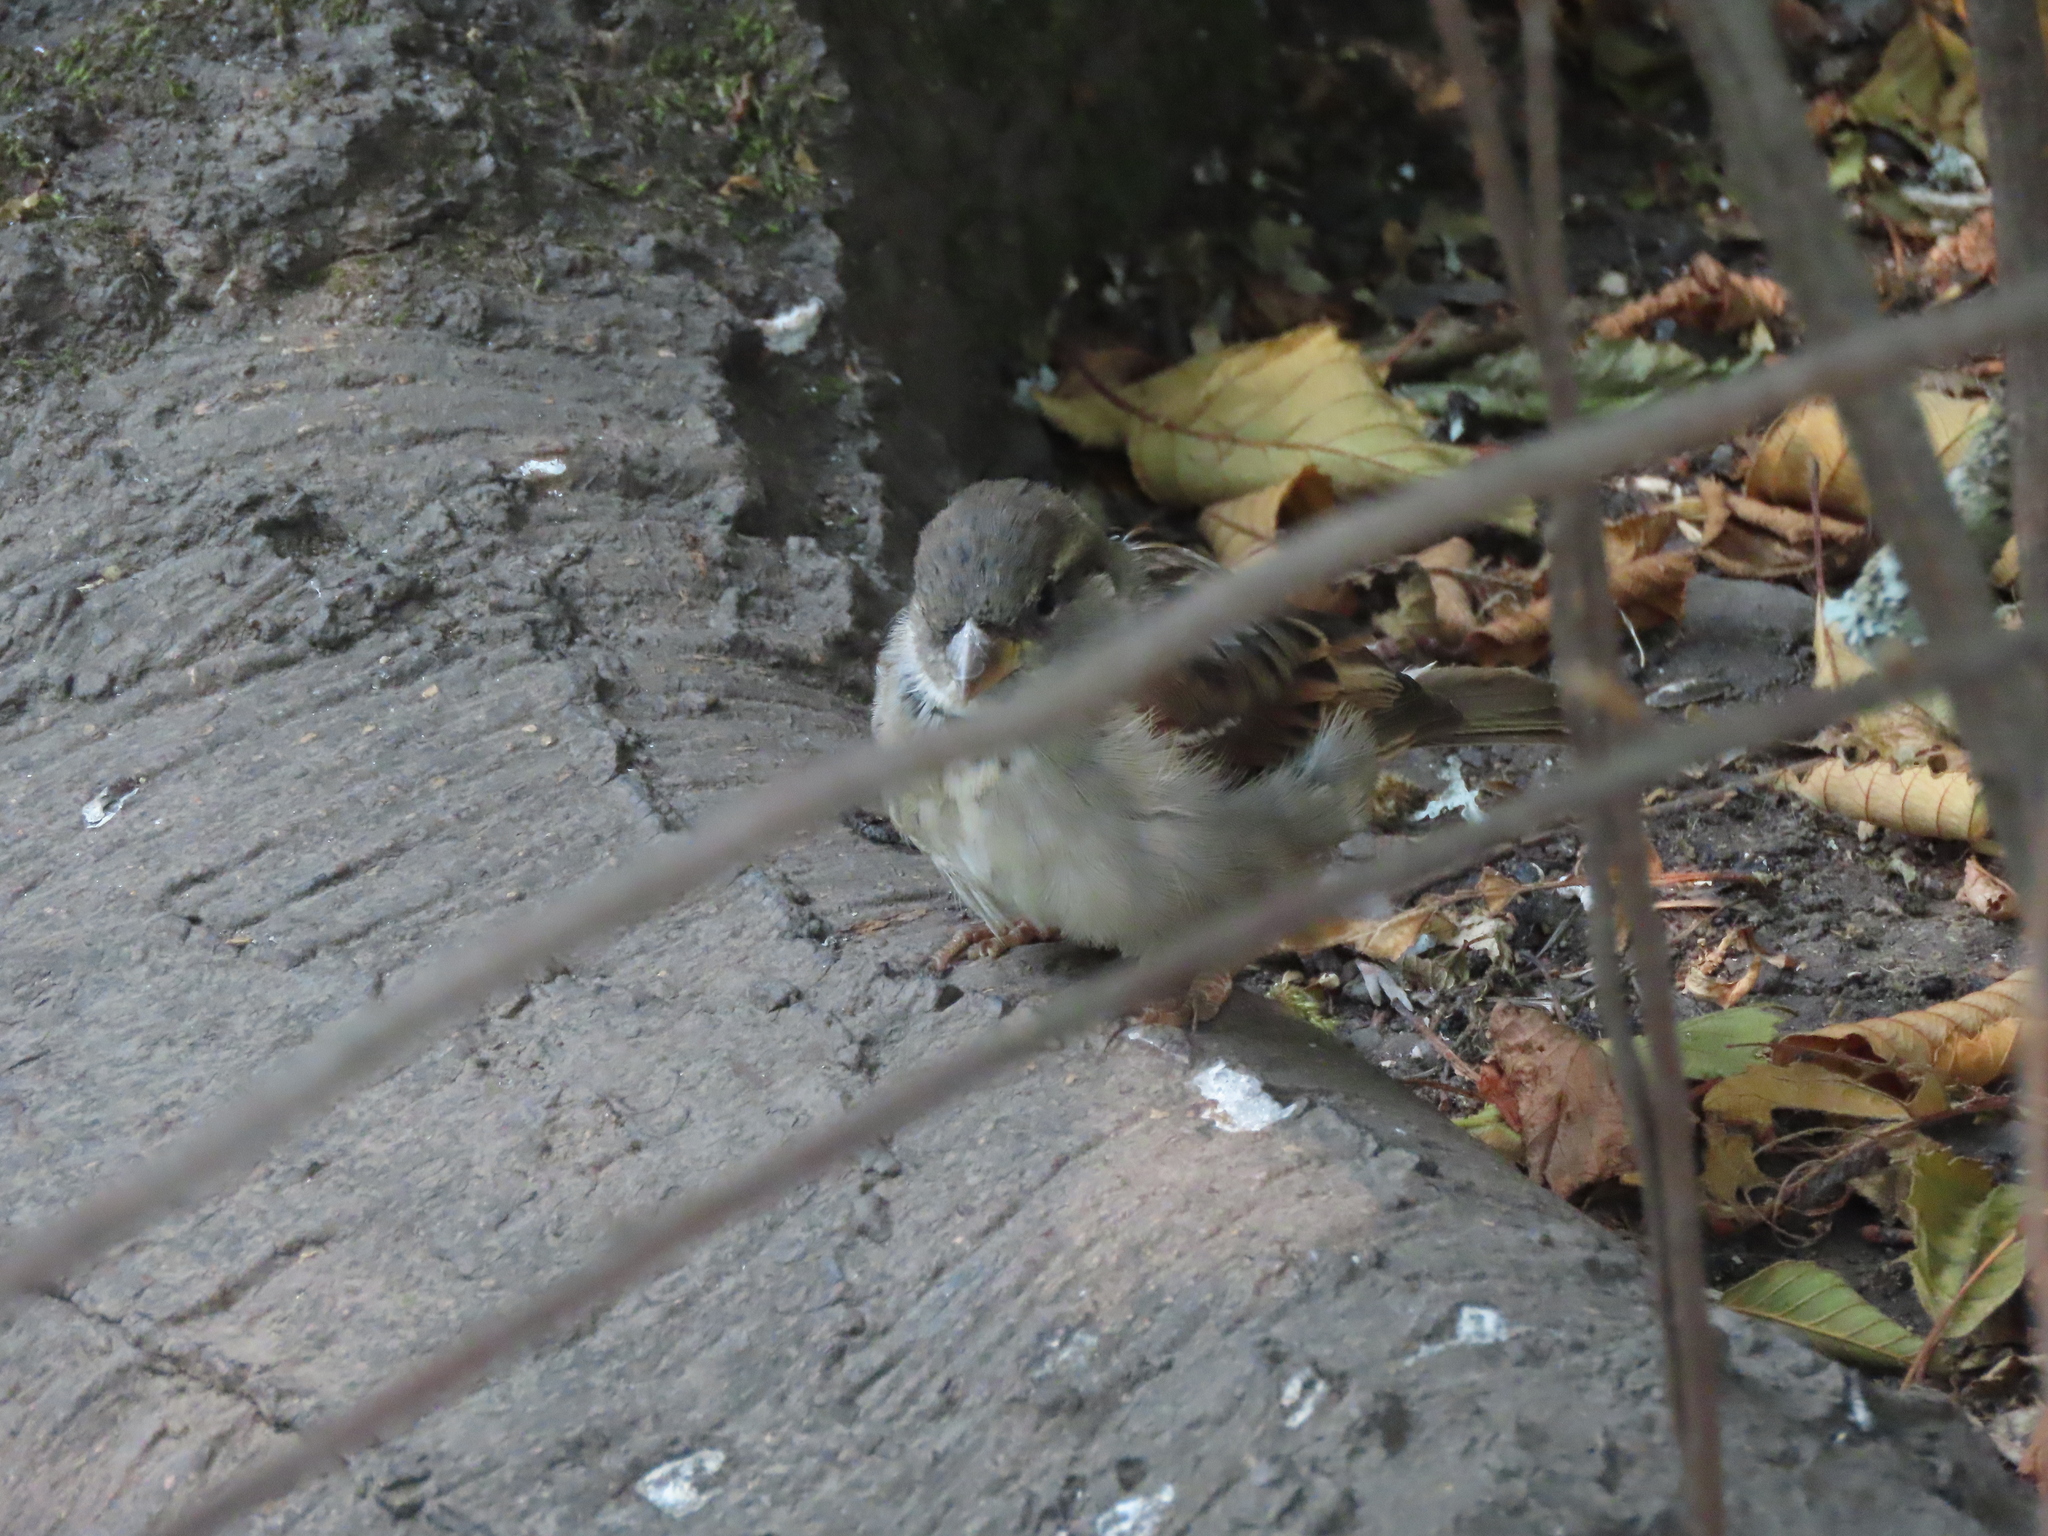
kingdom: Animalia
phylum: Chordata
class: Aves
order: Passeriformes
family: Passeridae
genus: Passer
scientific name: Passer domesticus
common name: House sparrow
